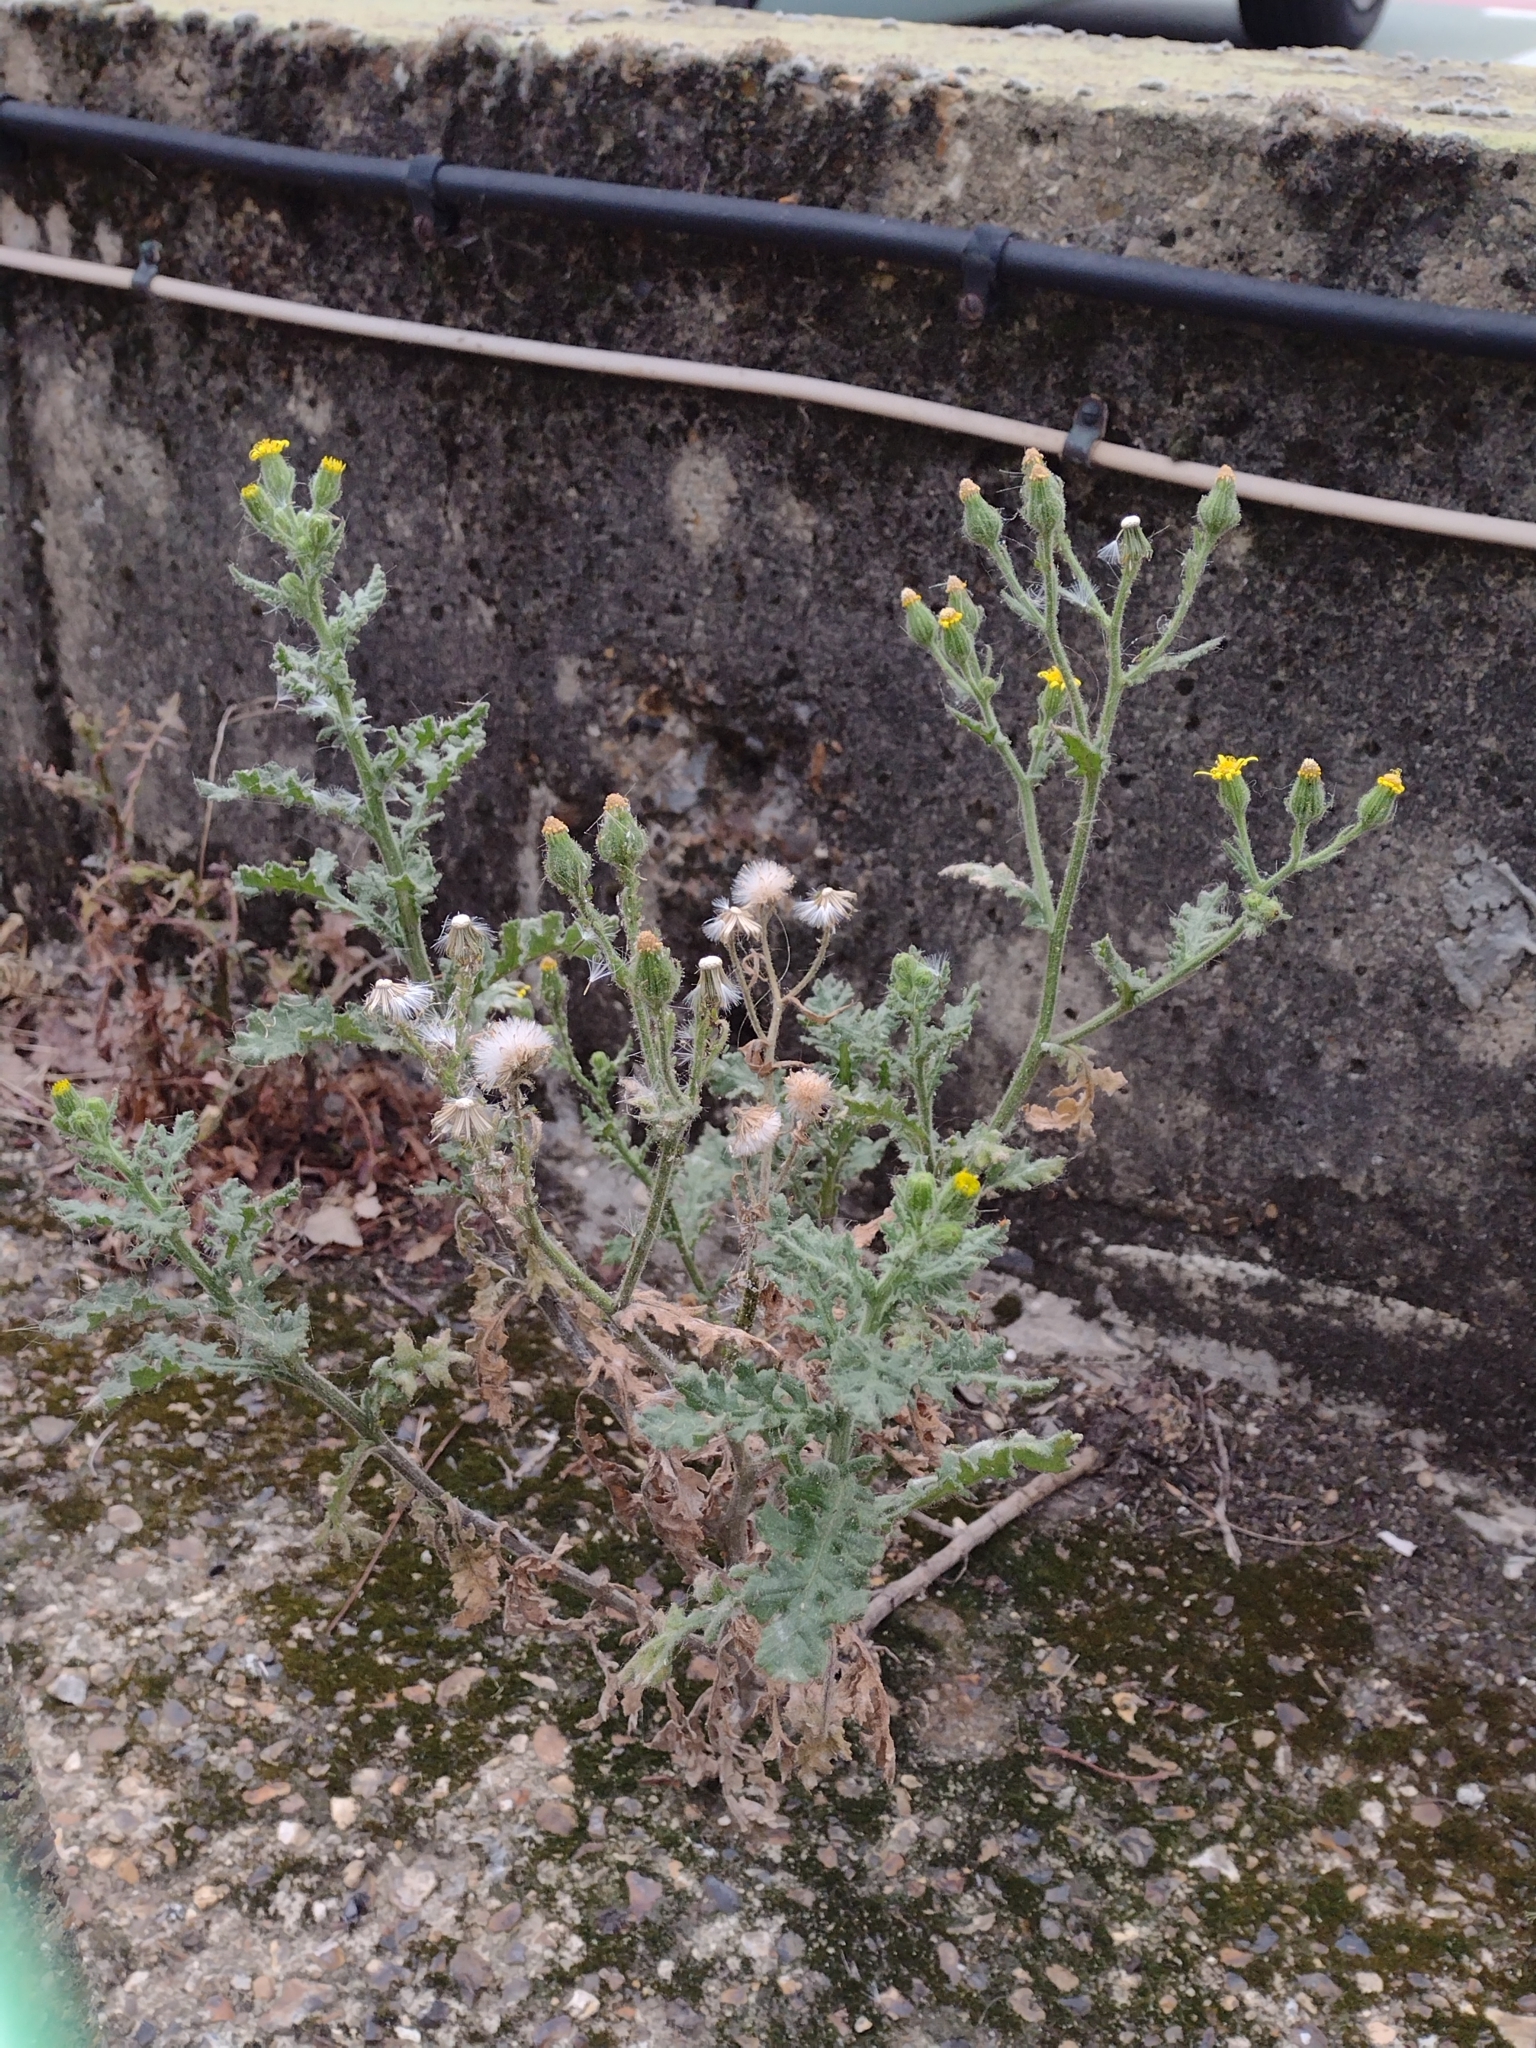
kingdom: Plantae
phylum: Tracheophyta
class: Magnoliopsida
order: Asterales
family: Asteraceae
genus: Senecio
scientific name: Senecio viscosus
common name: Sticky groundsel
